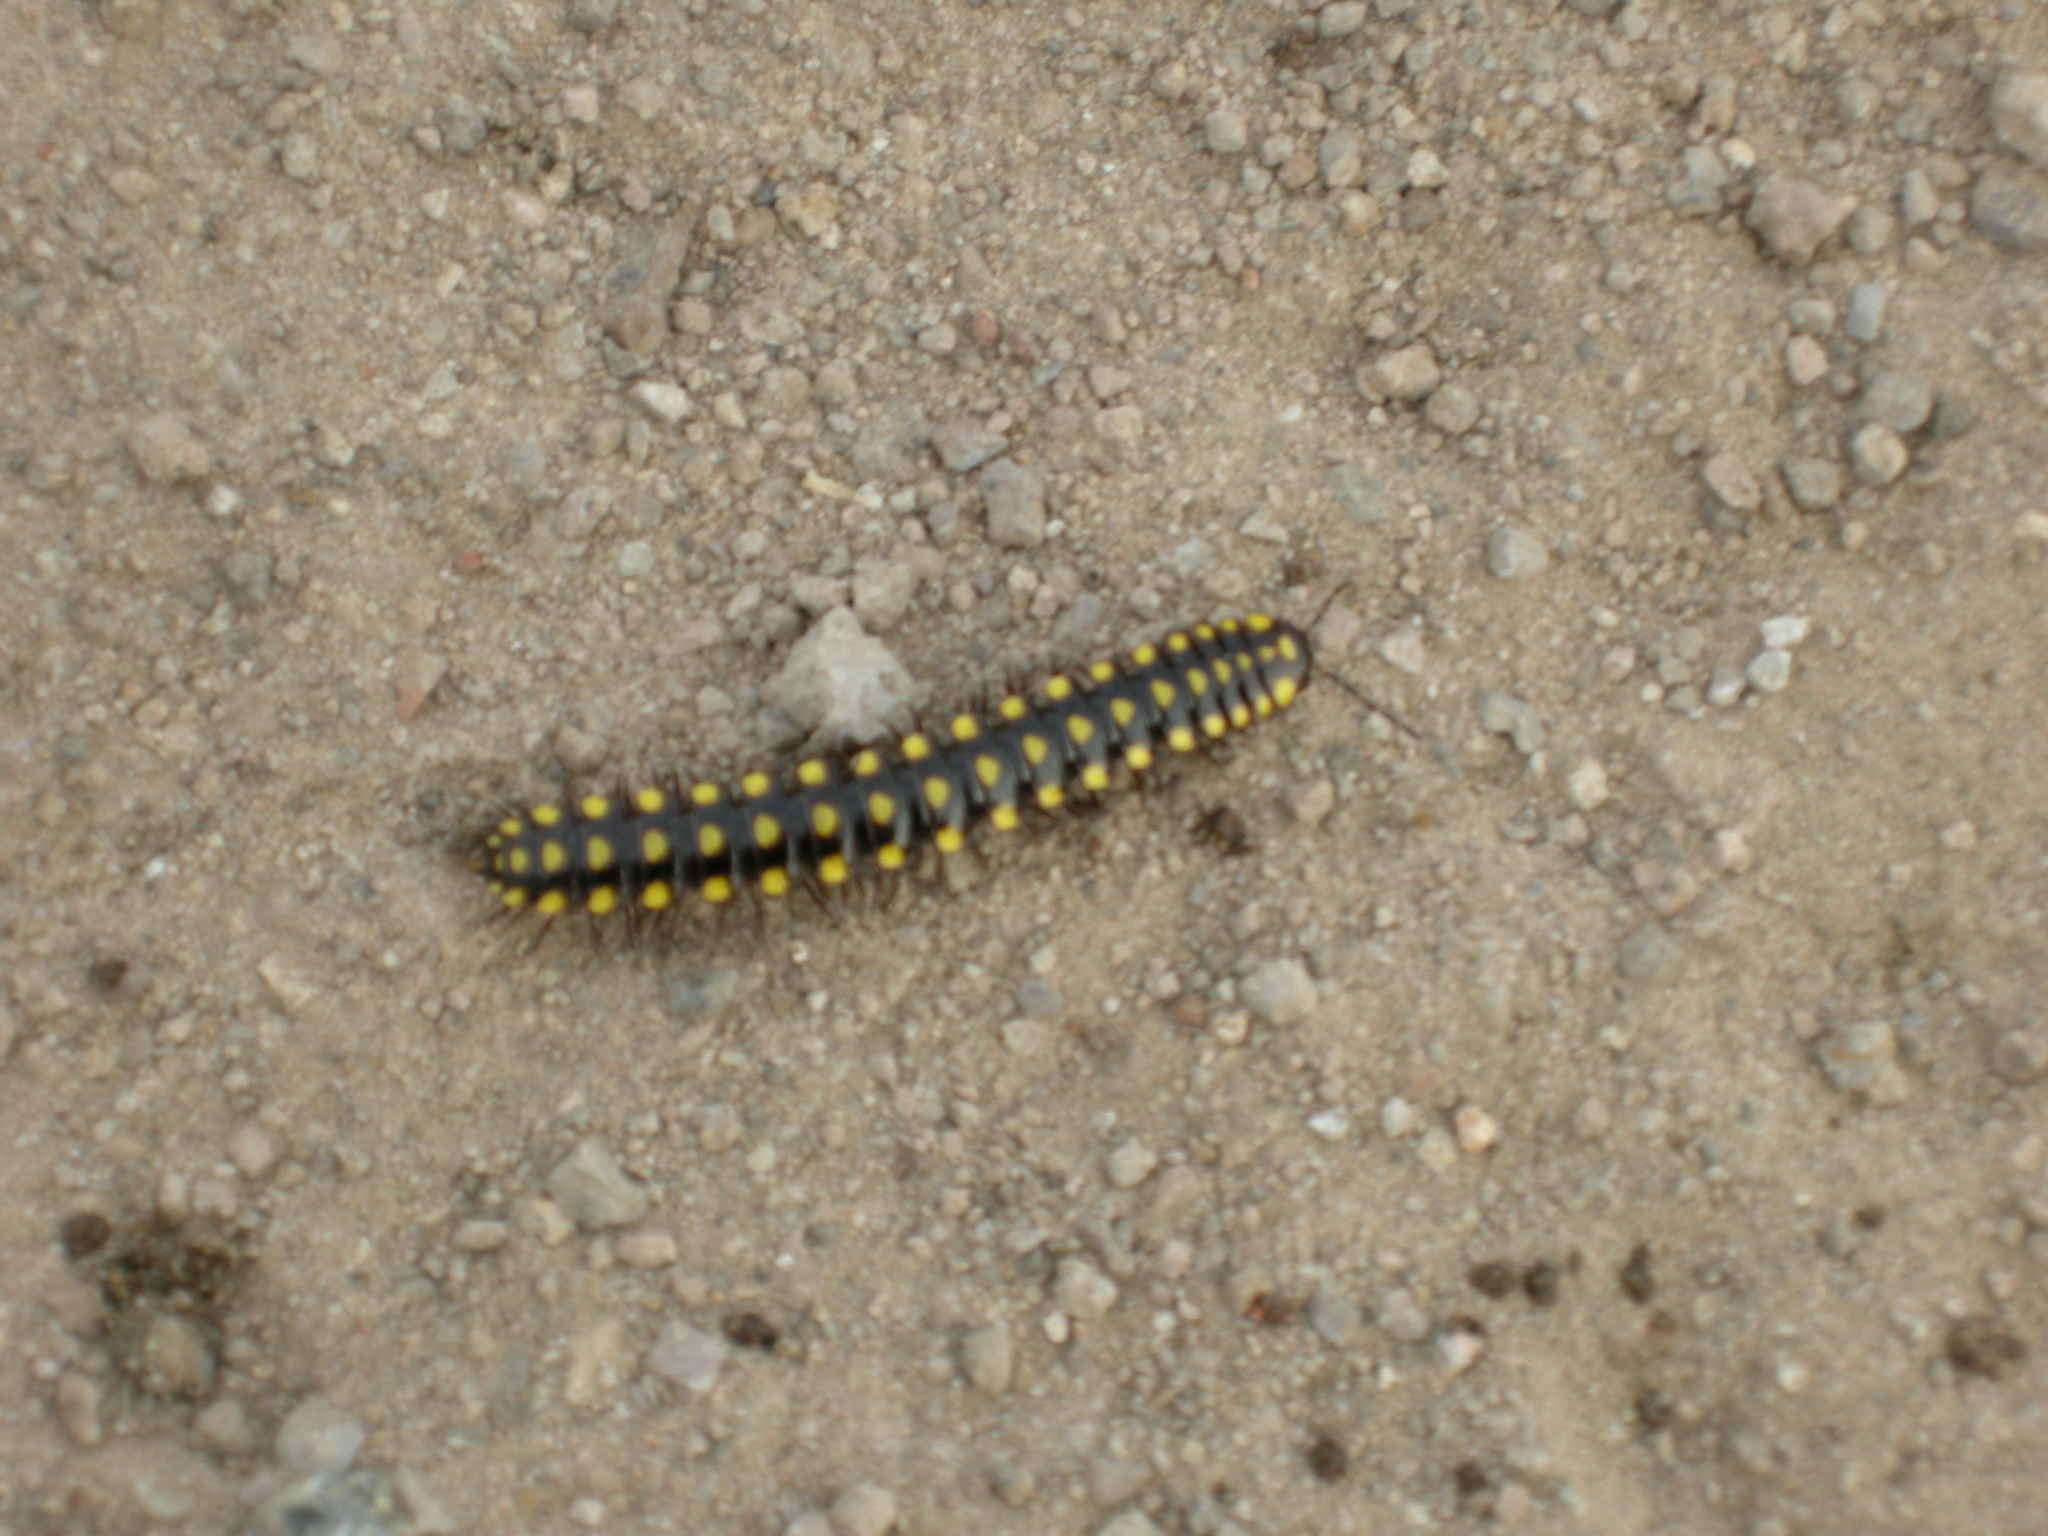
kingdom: Animalia
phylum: Arthropoda
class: Diplopoda
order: Polydesmida
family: Xystodesmidae
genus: Melaphe
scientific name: Melaphe vestita
